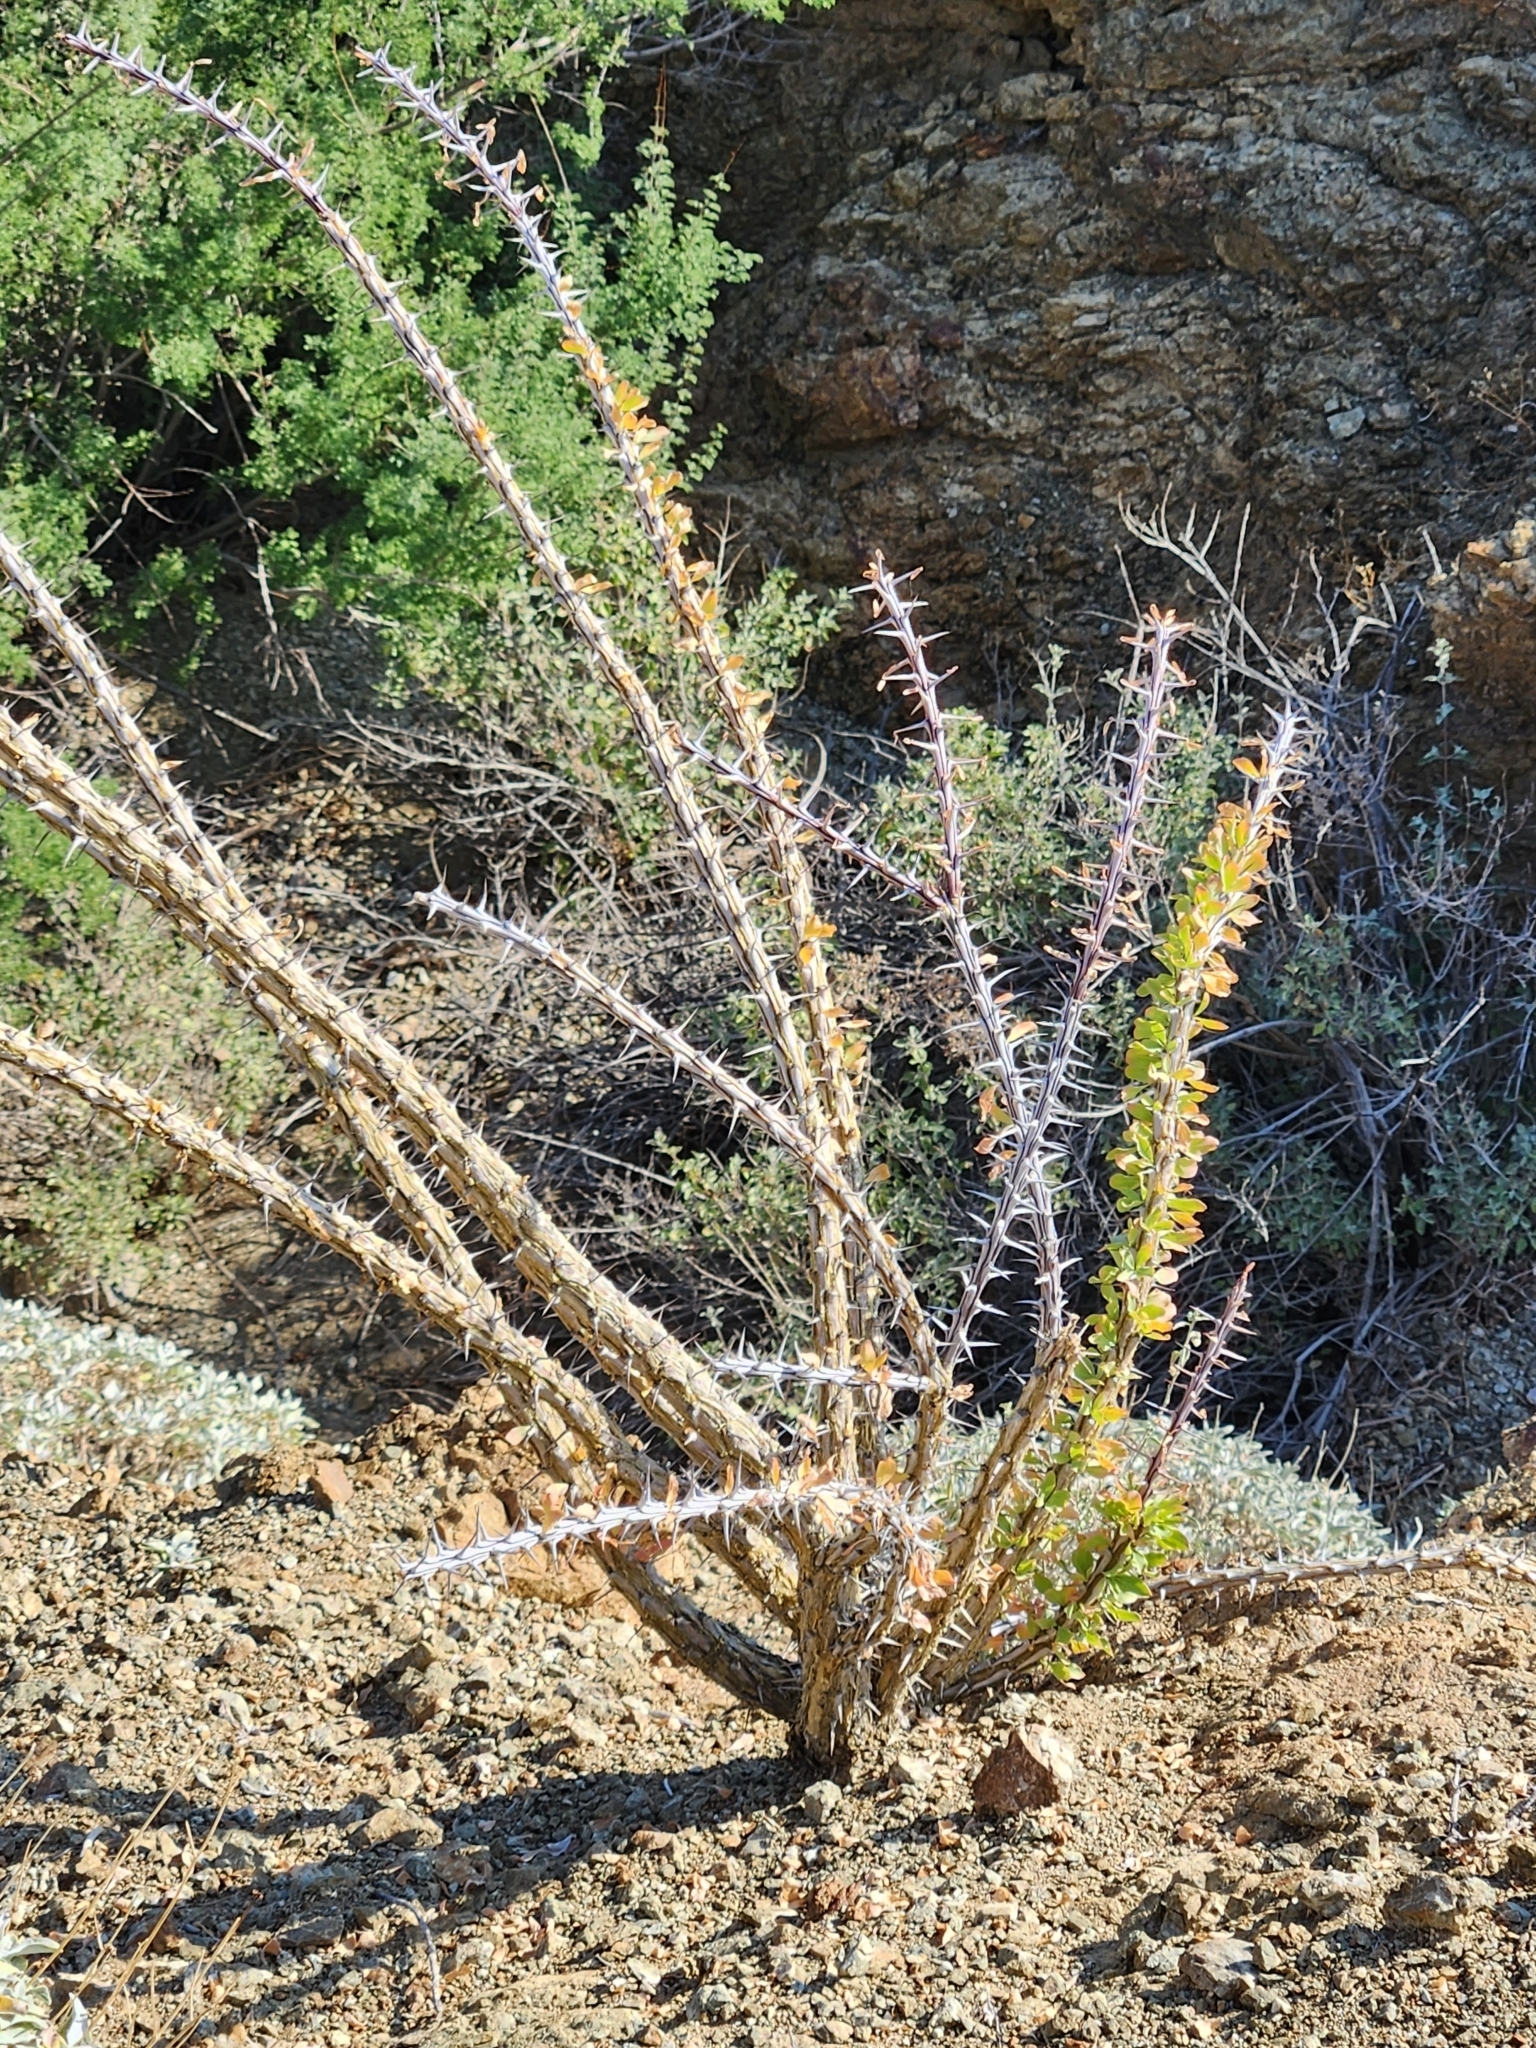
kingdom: Plantae
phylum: Tracheophyta
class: Magnoliopsida
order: Ericales
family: Fouquieriaceae
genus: Fouquieria
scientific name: Fouquieria splendens
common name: Vine-cactus
